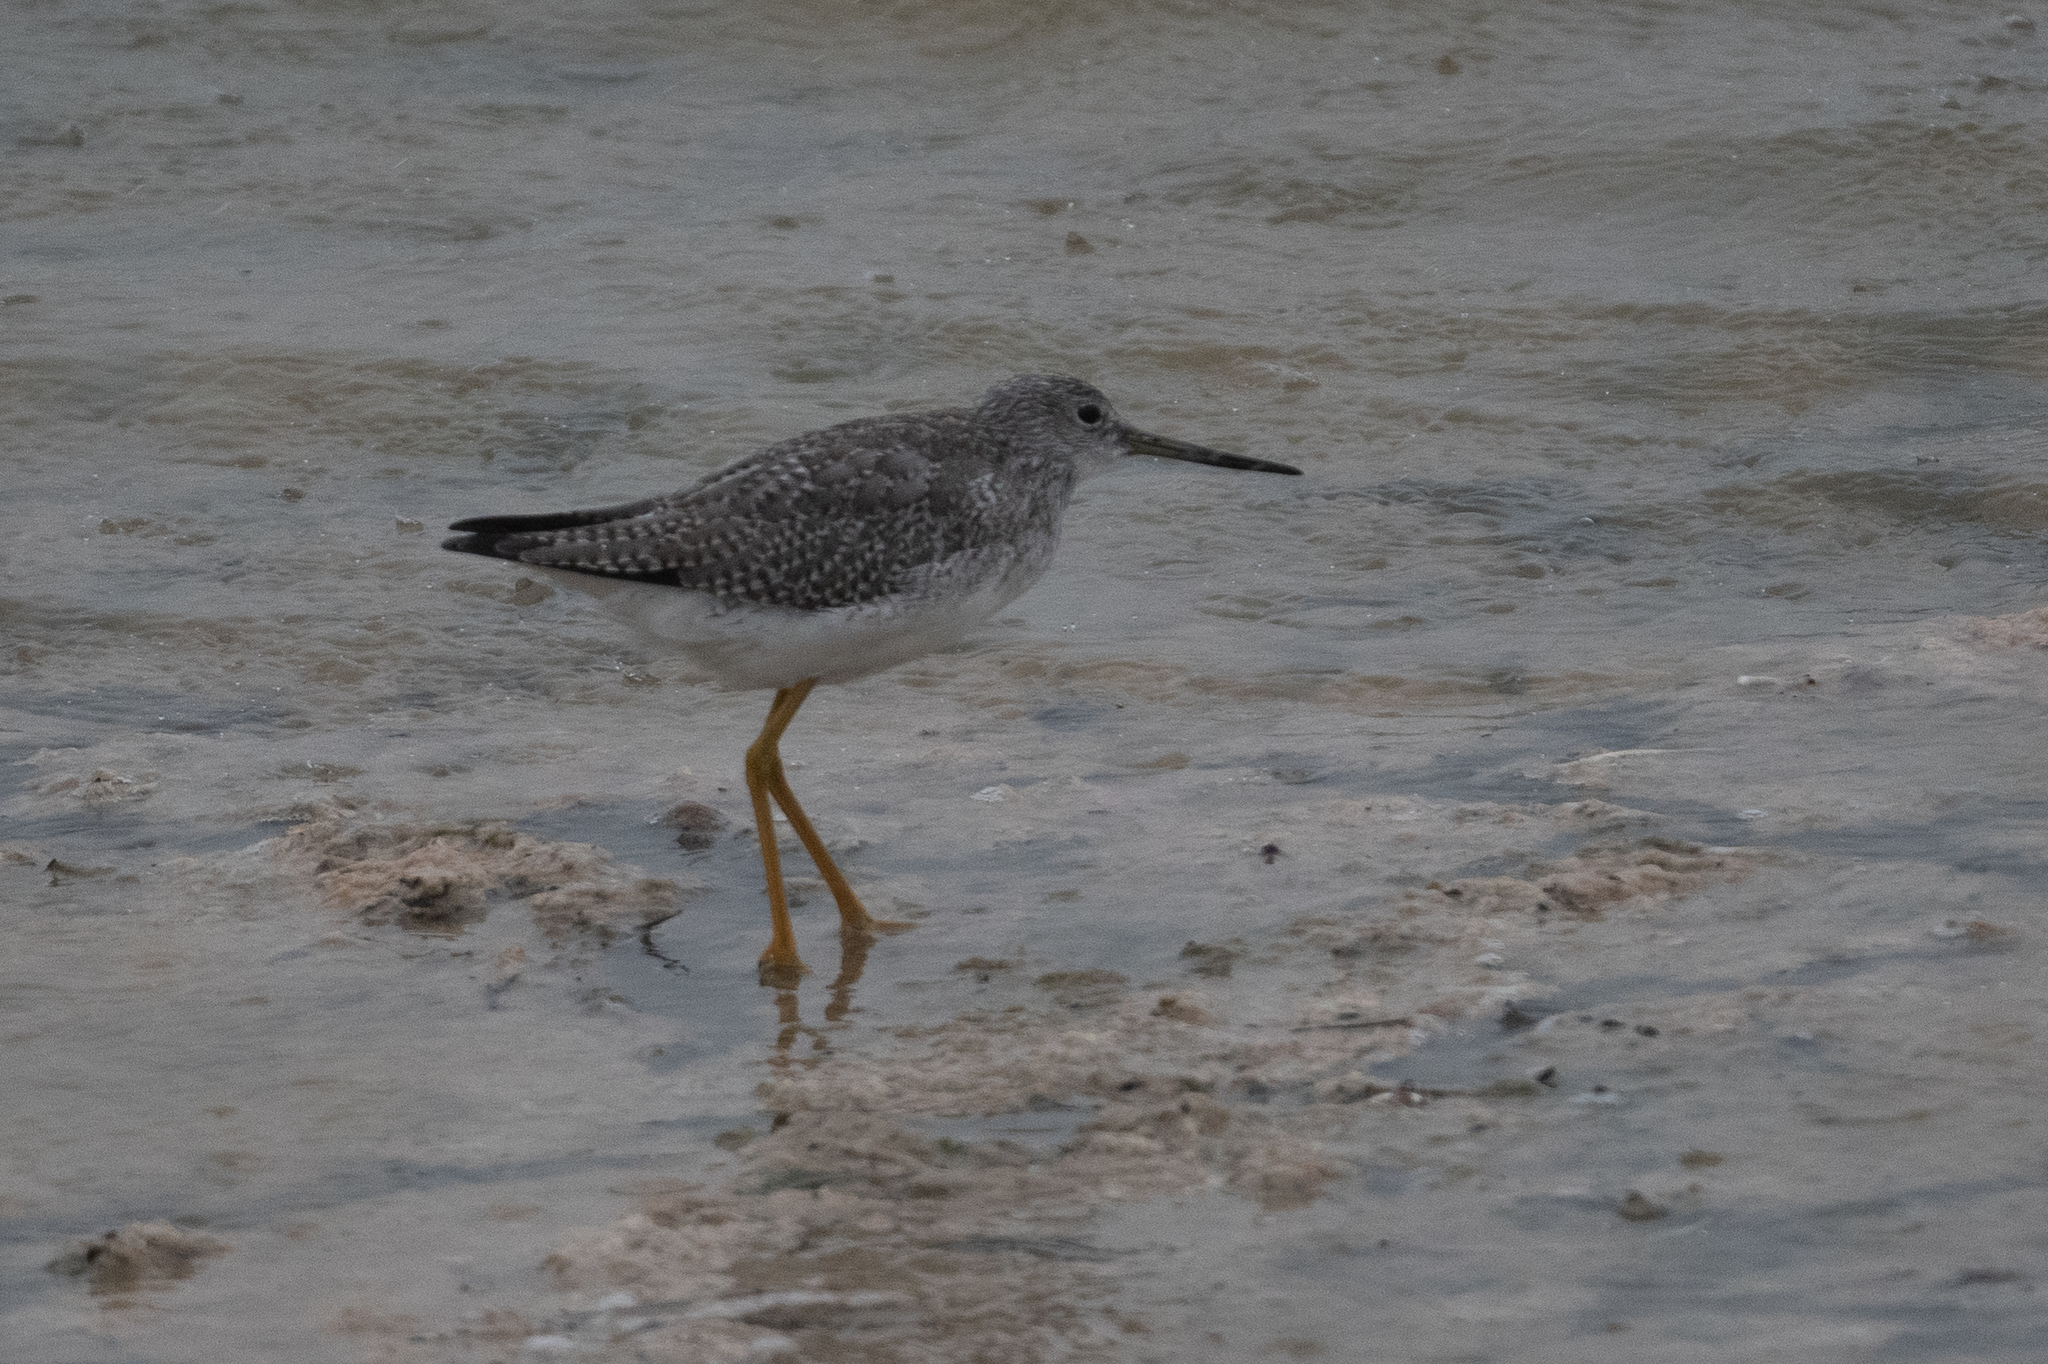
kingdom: Animalia
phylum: Chordata
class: Aves
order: Charadriiformes
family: Scolopacidae
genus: Tringa
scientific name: Tringa melanoleuca
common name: Greater yellowlegs
